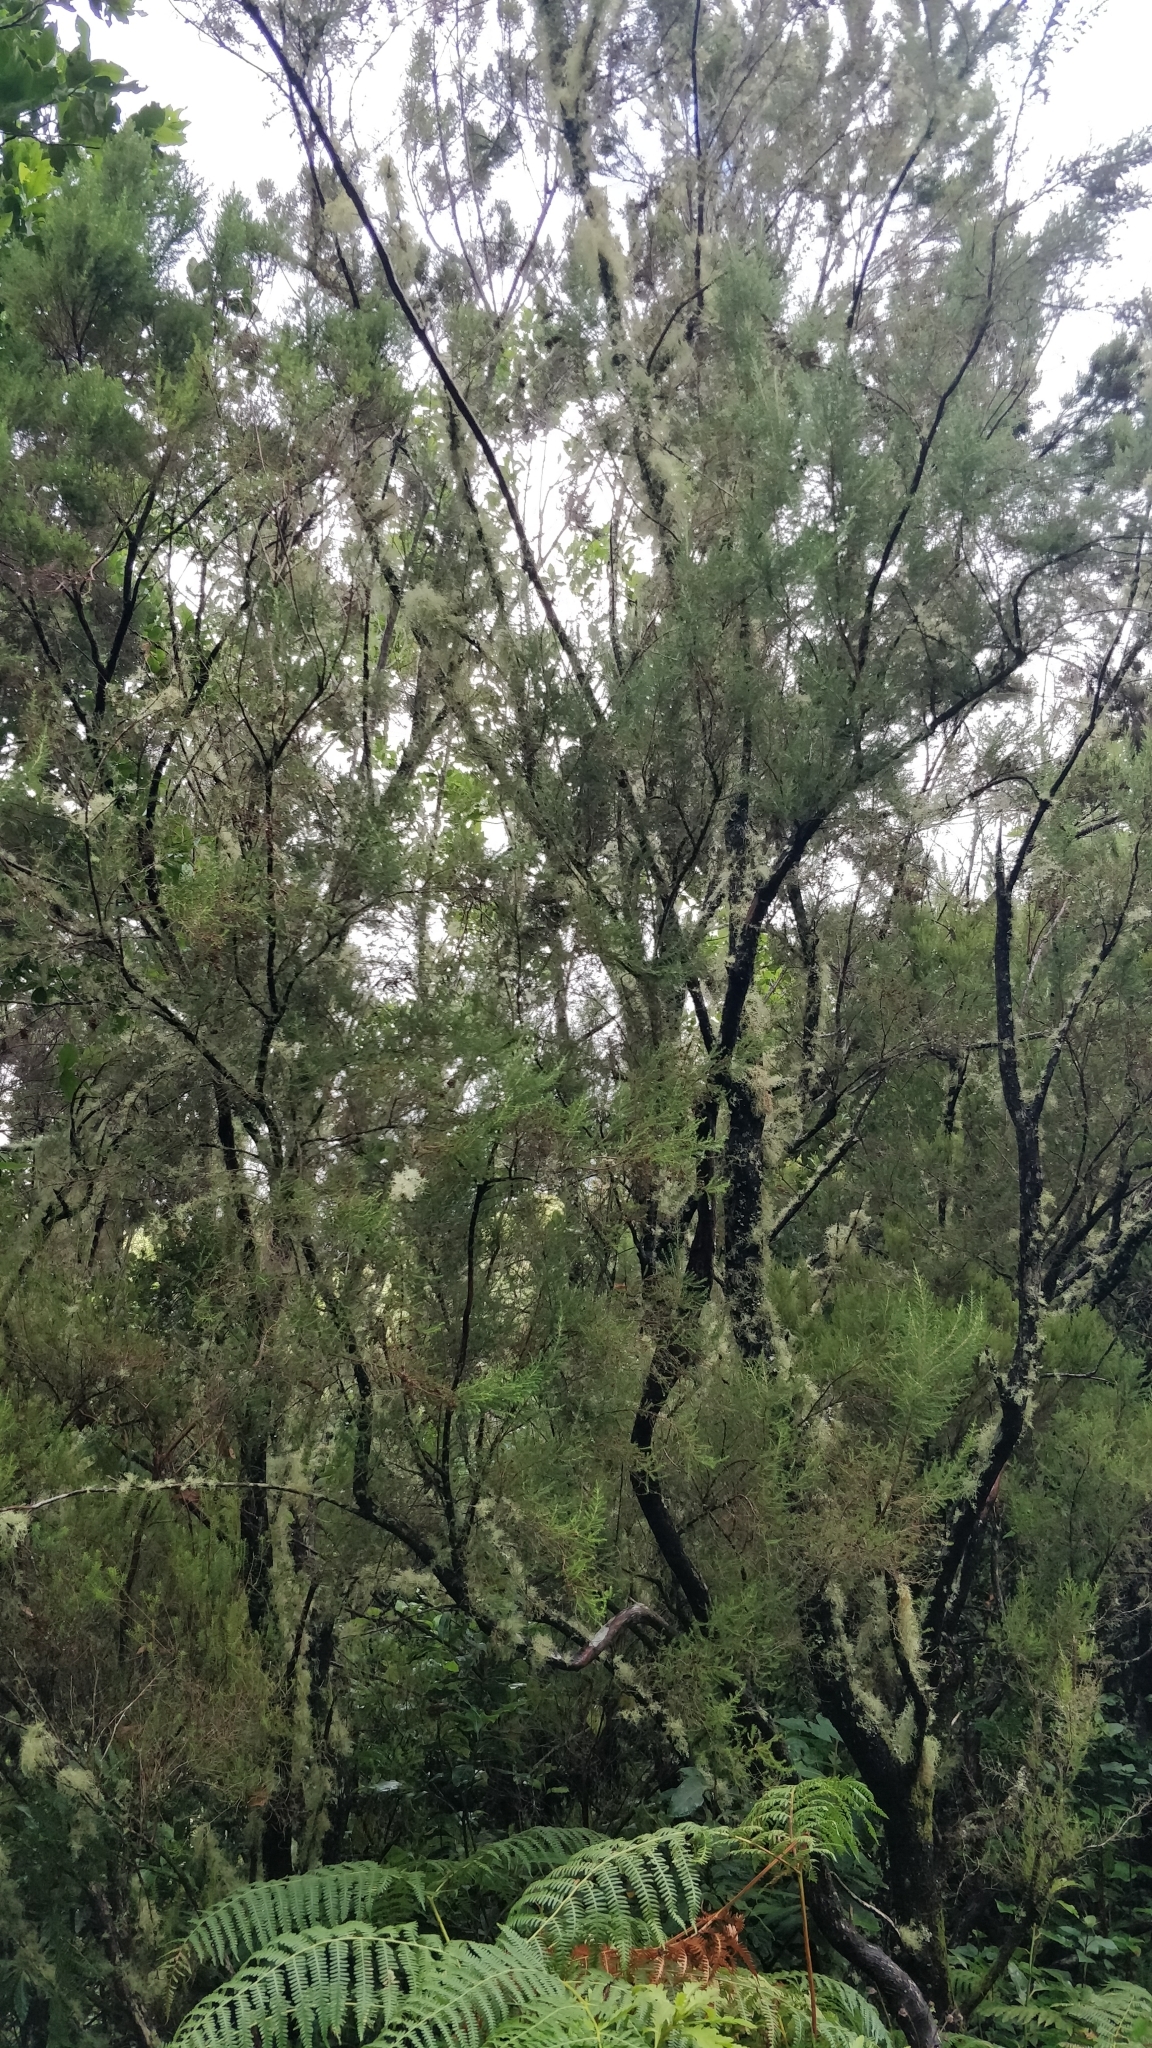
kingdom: Plantae
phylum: Tracheophyta
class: Magnoliopsida
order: Ericales
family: Ericaceae
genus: Erica
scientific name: Erica canariensis
